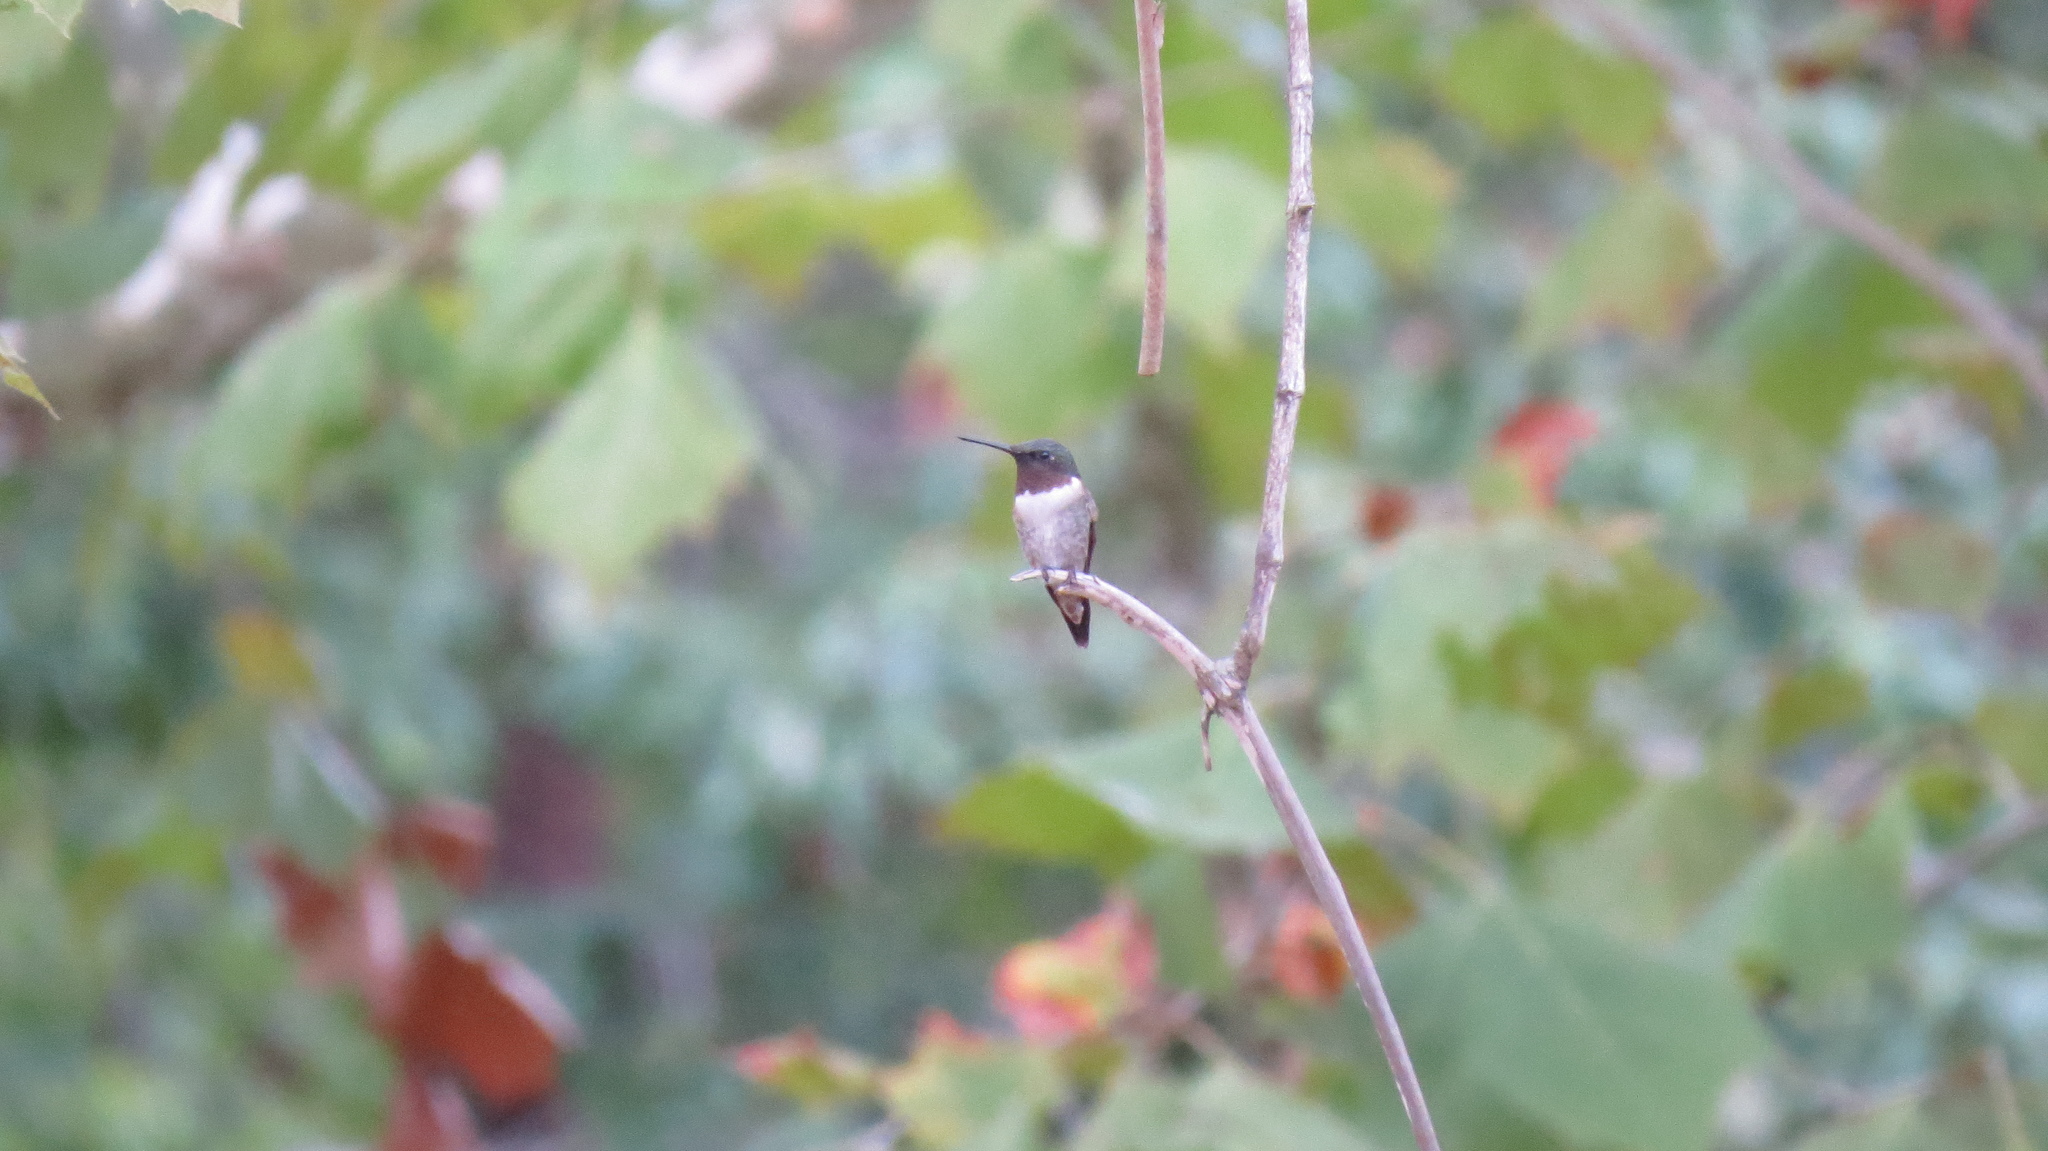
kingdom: Animalia
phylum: Chordata
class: Aves
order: Apodiformes
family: Trochilidae
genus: Archilochus
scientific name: Archilochus colubris
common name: Ruby-throated hummingbird
